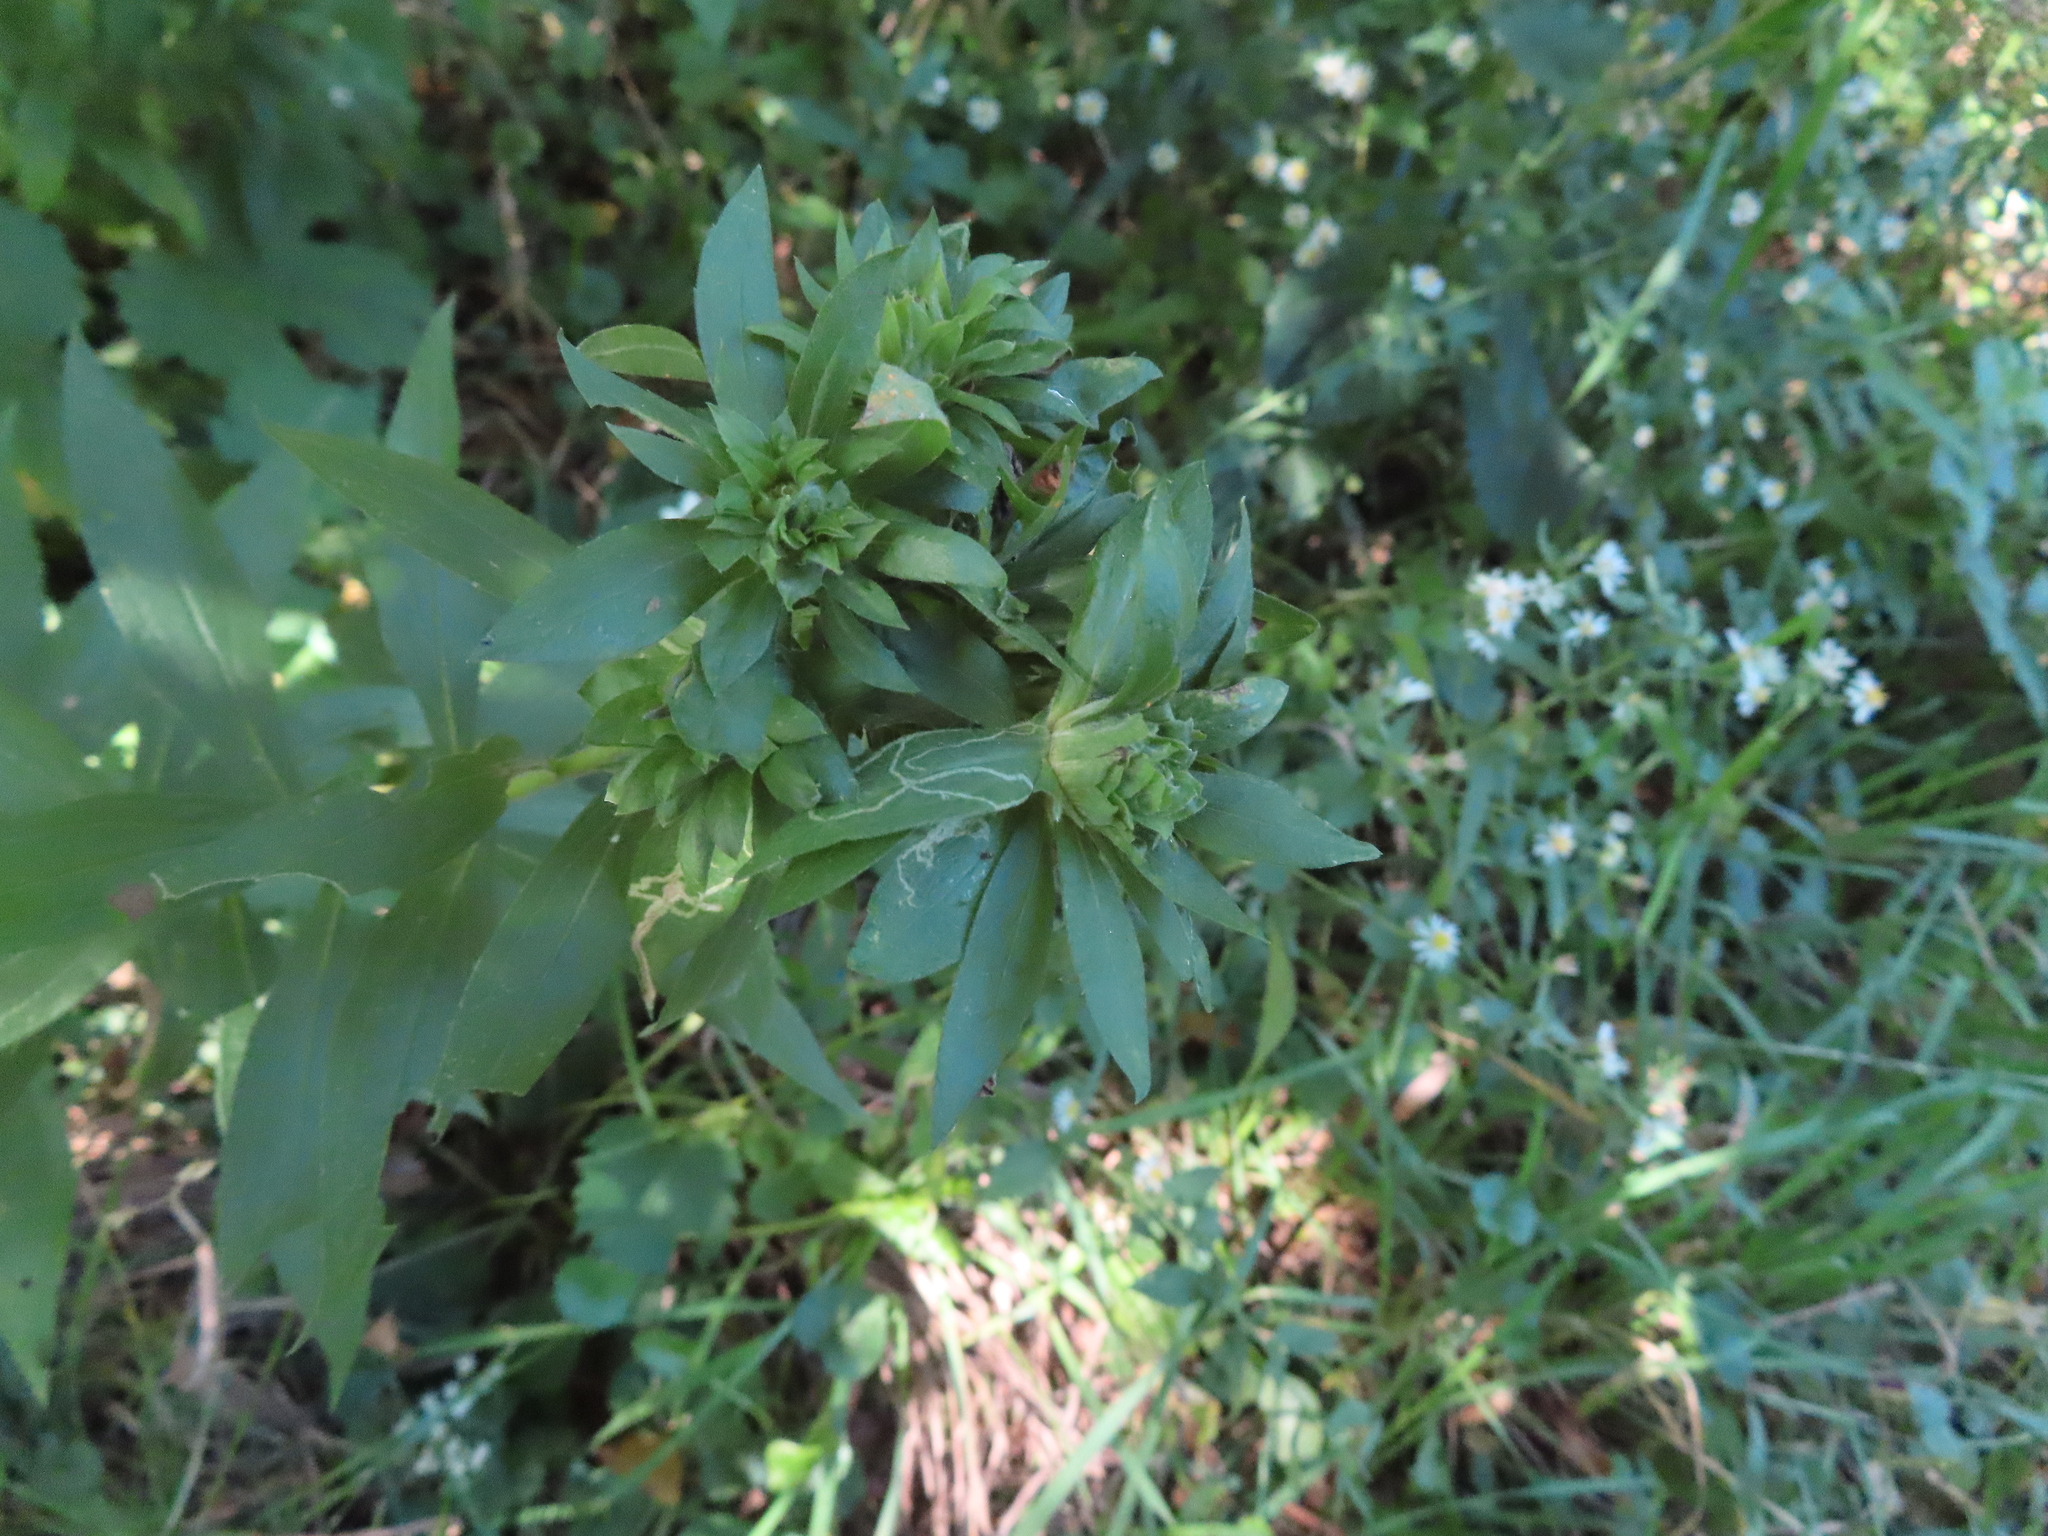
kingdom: Animalia
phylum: Arthropoda
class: Insecta
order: Diptera
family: Tephritidae
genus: Procecidochares
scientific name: Procecidochares atra
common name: Goldenrod brussels sprout gall fly
